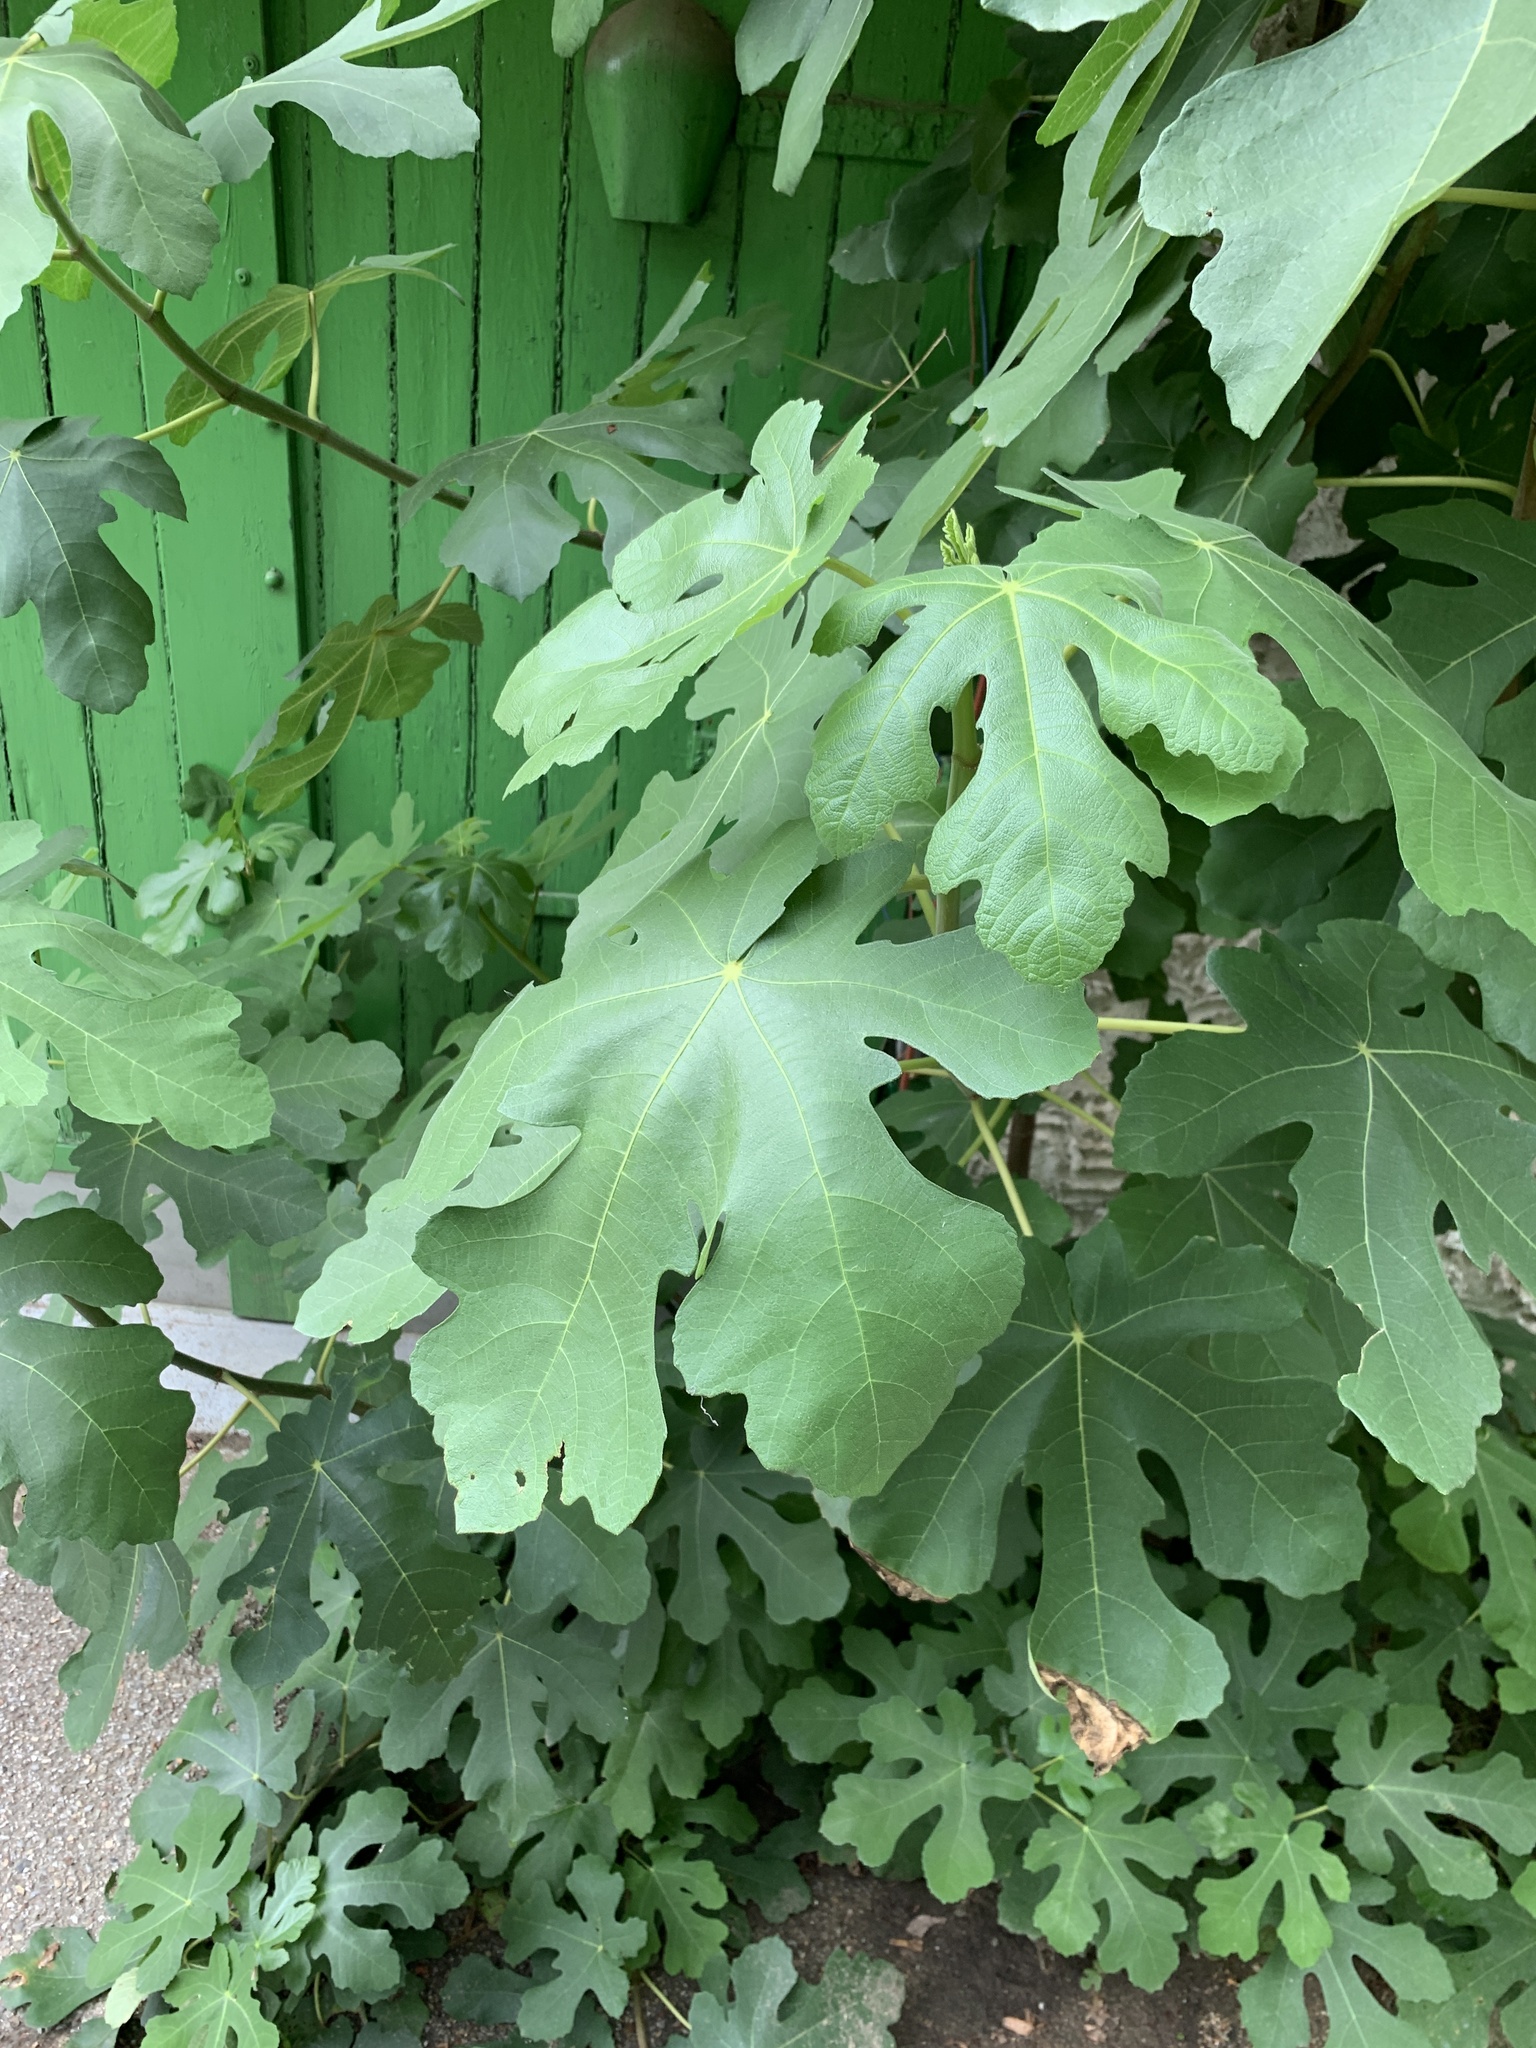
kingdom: Plantae
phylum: Tracheophyta
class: Magnoliopsida
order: Rosales
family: Moraceae
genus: Ficus
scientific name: Ficus carica
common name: Fig
